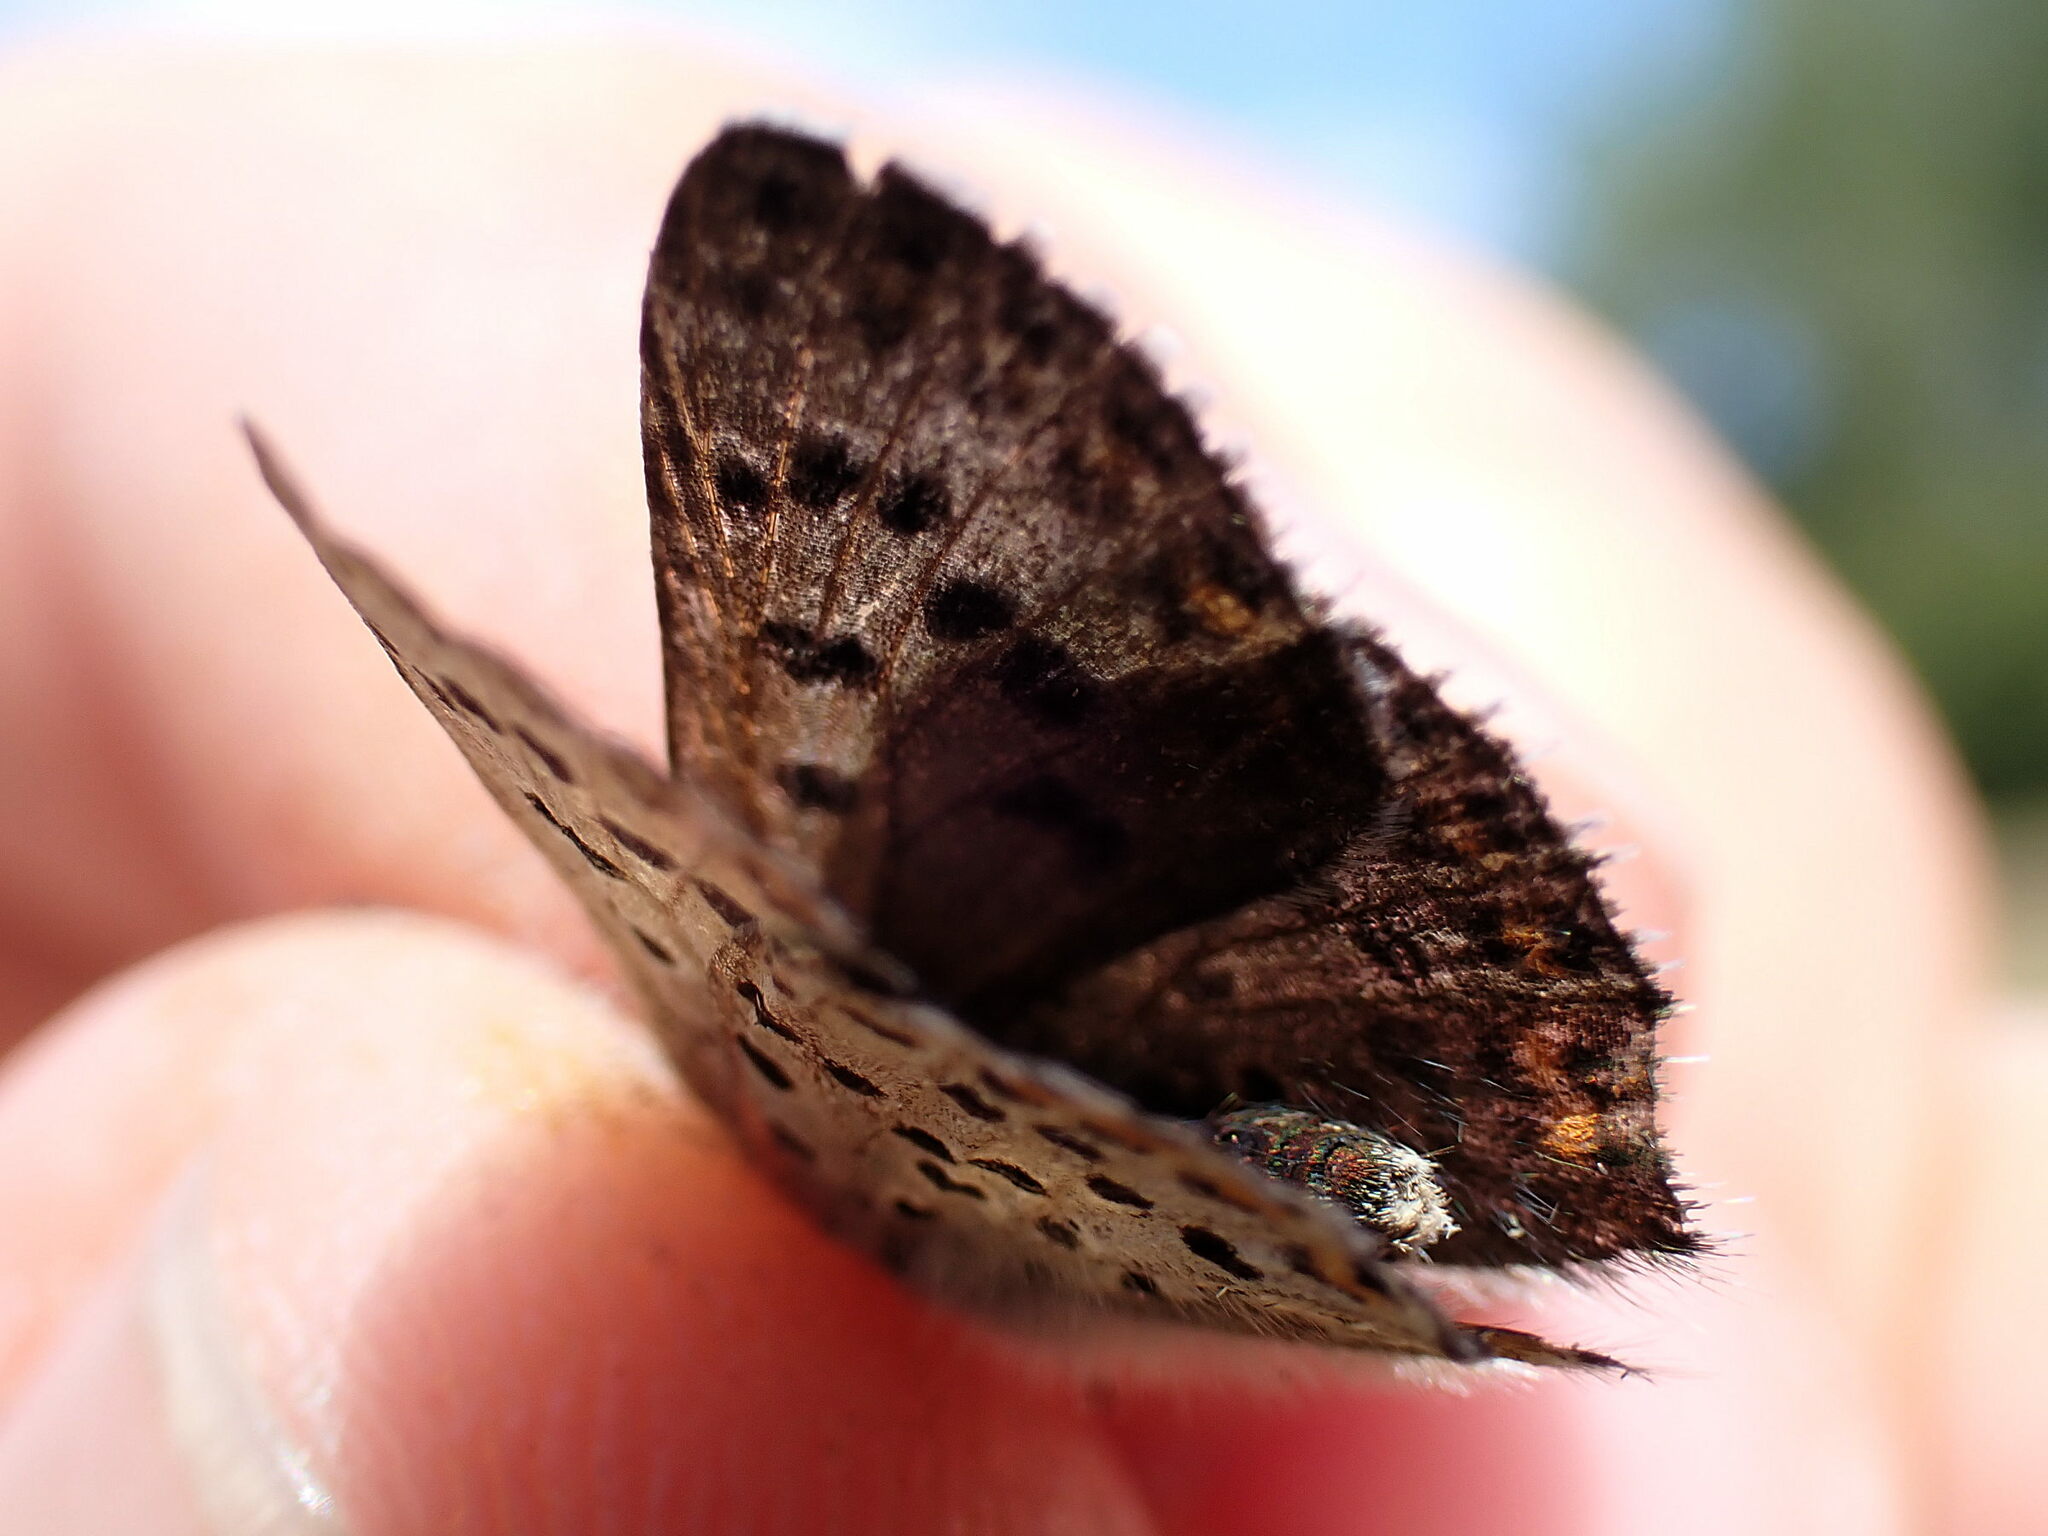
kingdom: Animalia
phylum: Arthropoda
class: Insecta
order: Lepidoptera
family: Lycaenidae
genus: Loweia
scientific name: Loweia tityrus
